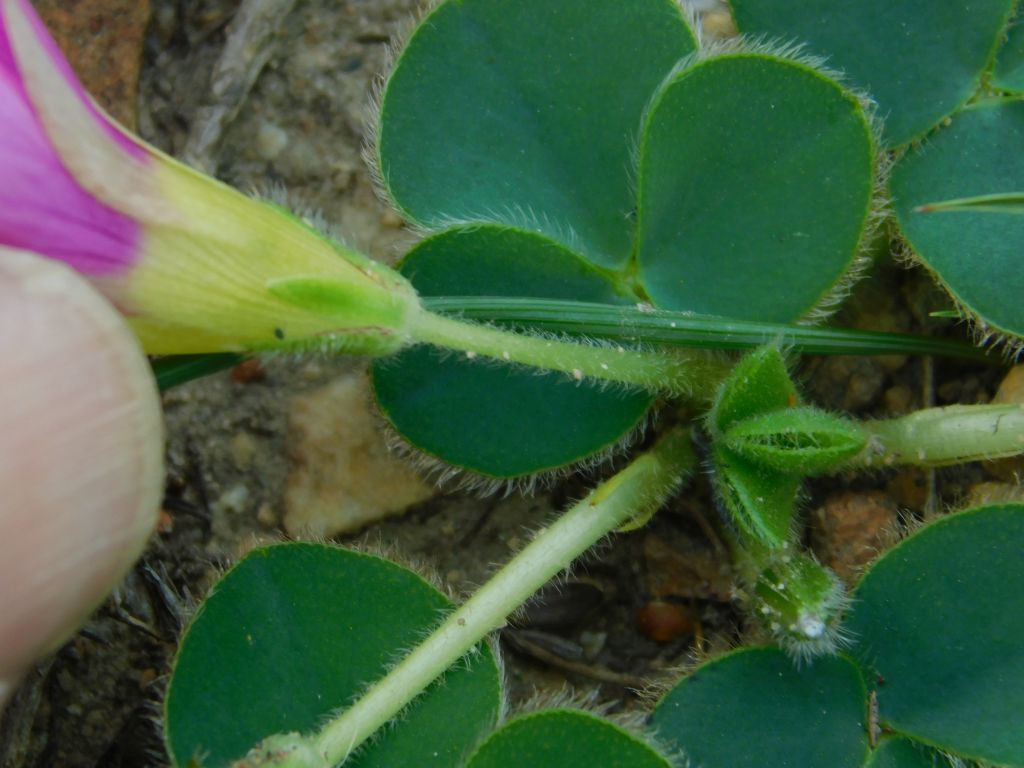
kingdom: Plantae
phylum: Tracheophyta
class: Magnoliopsida
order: Oxalidales
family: Oxalidaceae
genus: Oxalis
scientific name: Oxalis purpurea
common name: Purple woodsorrel
